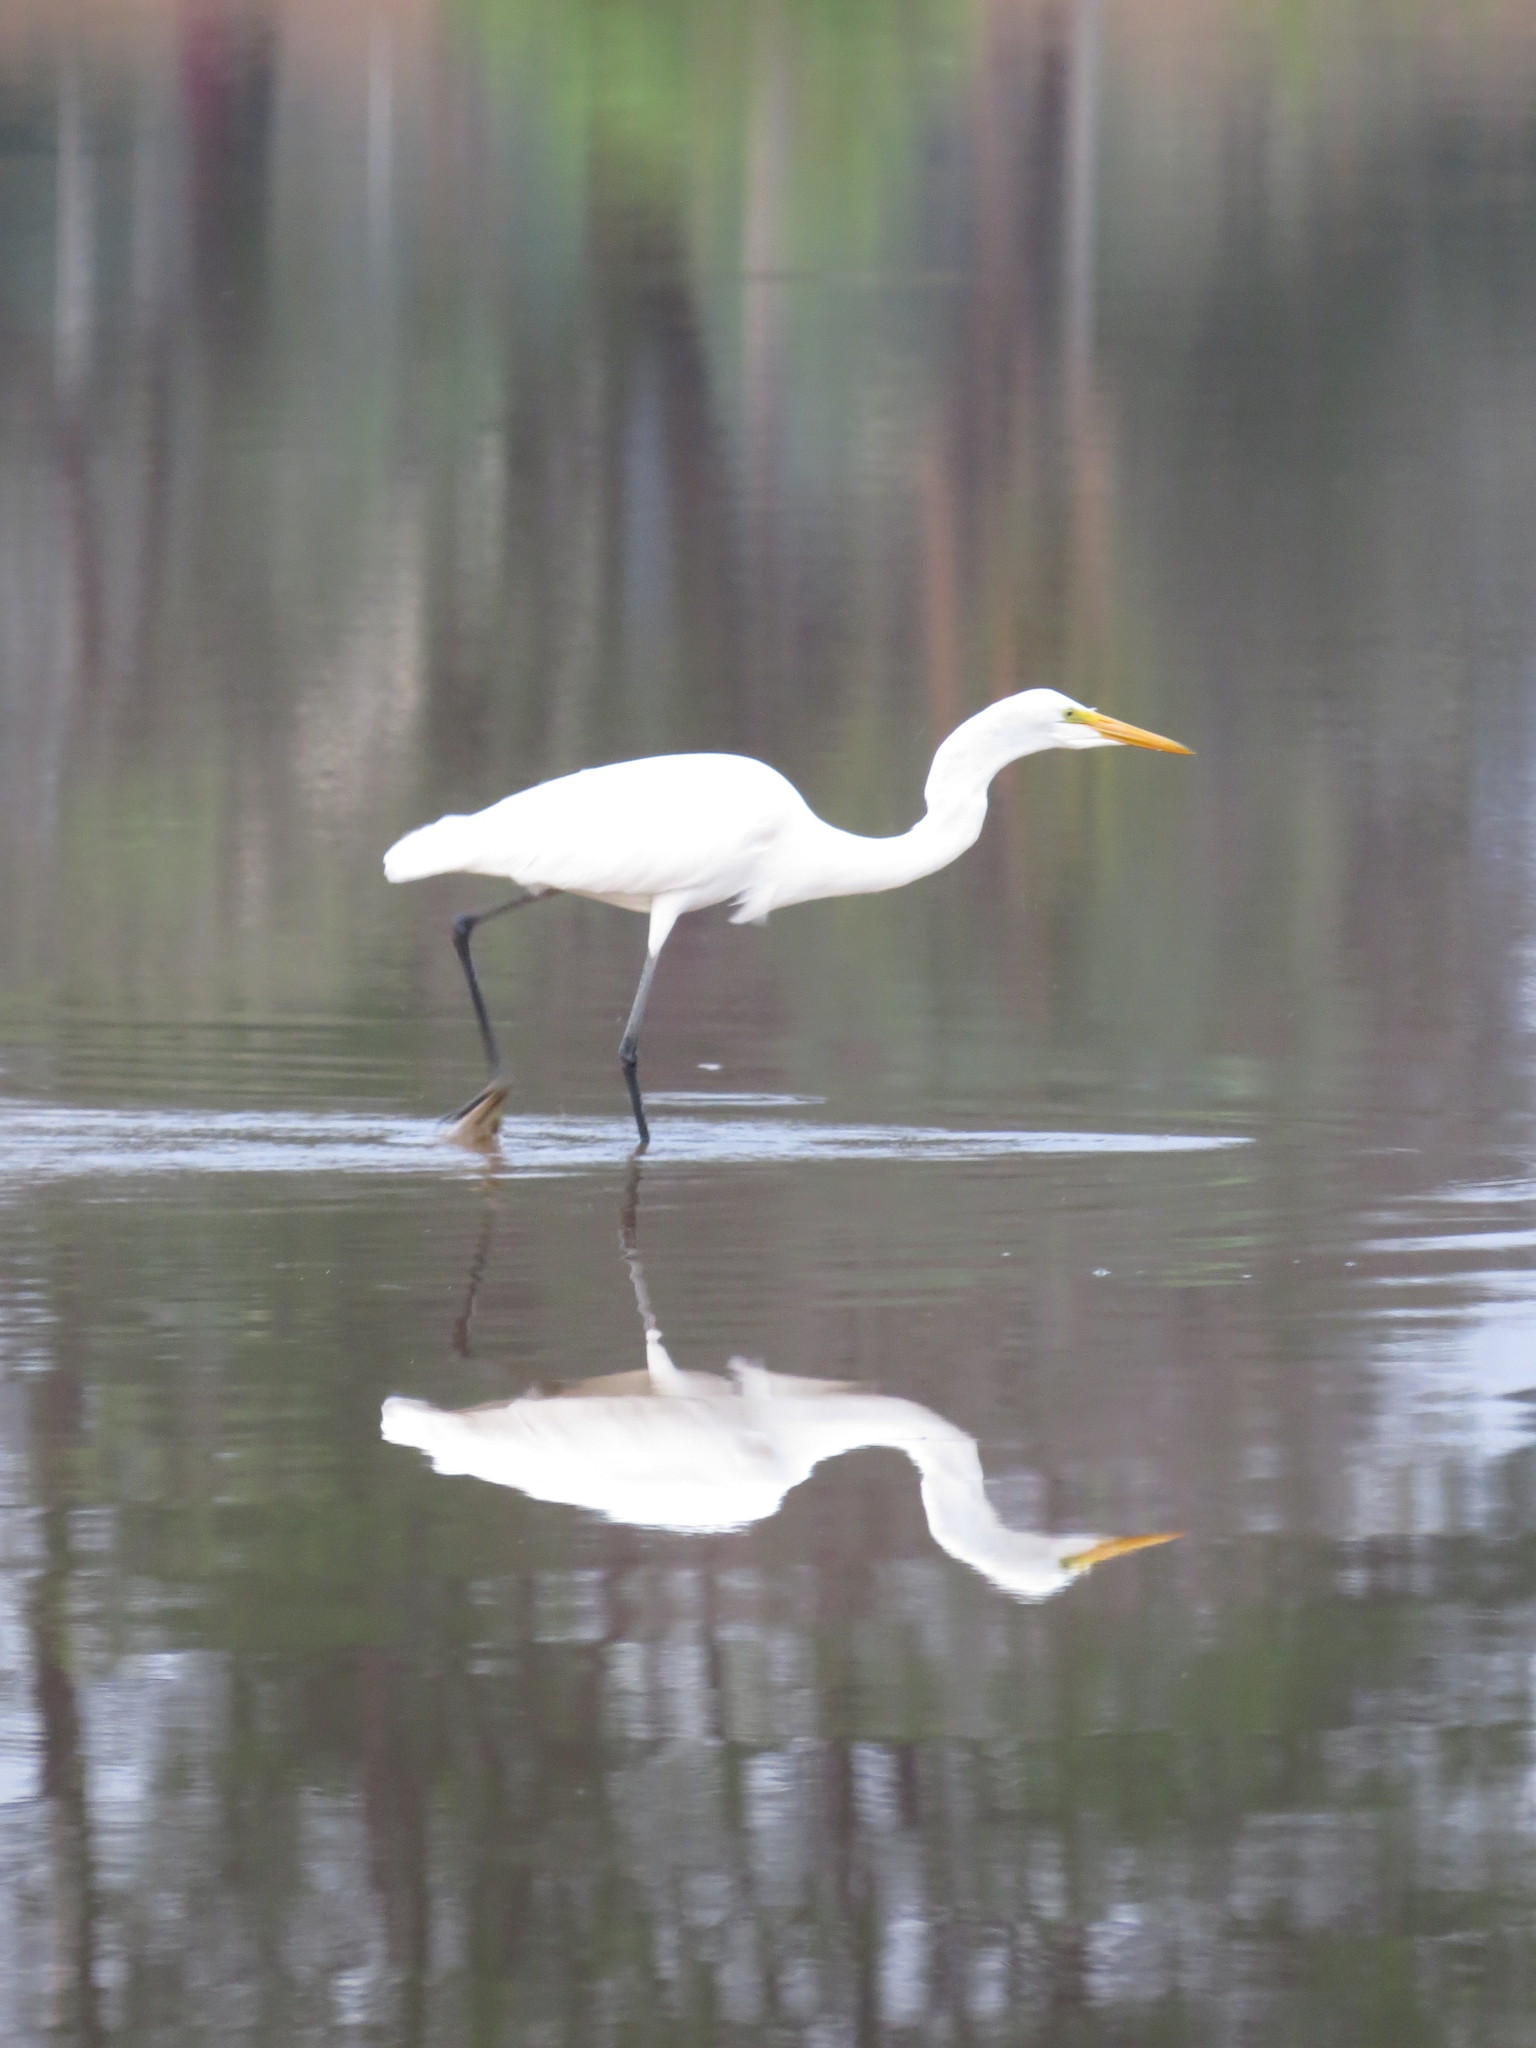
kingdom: Animalia
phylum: Chordata
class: Aves
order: Pelecaniformes
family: Ardeidae
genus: Ardea
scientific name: Ardea alba
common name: Great egret
